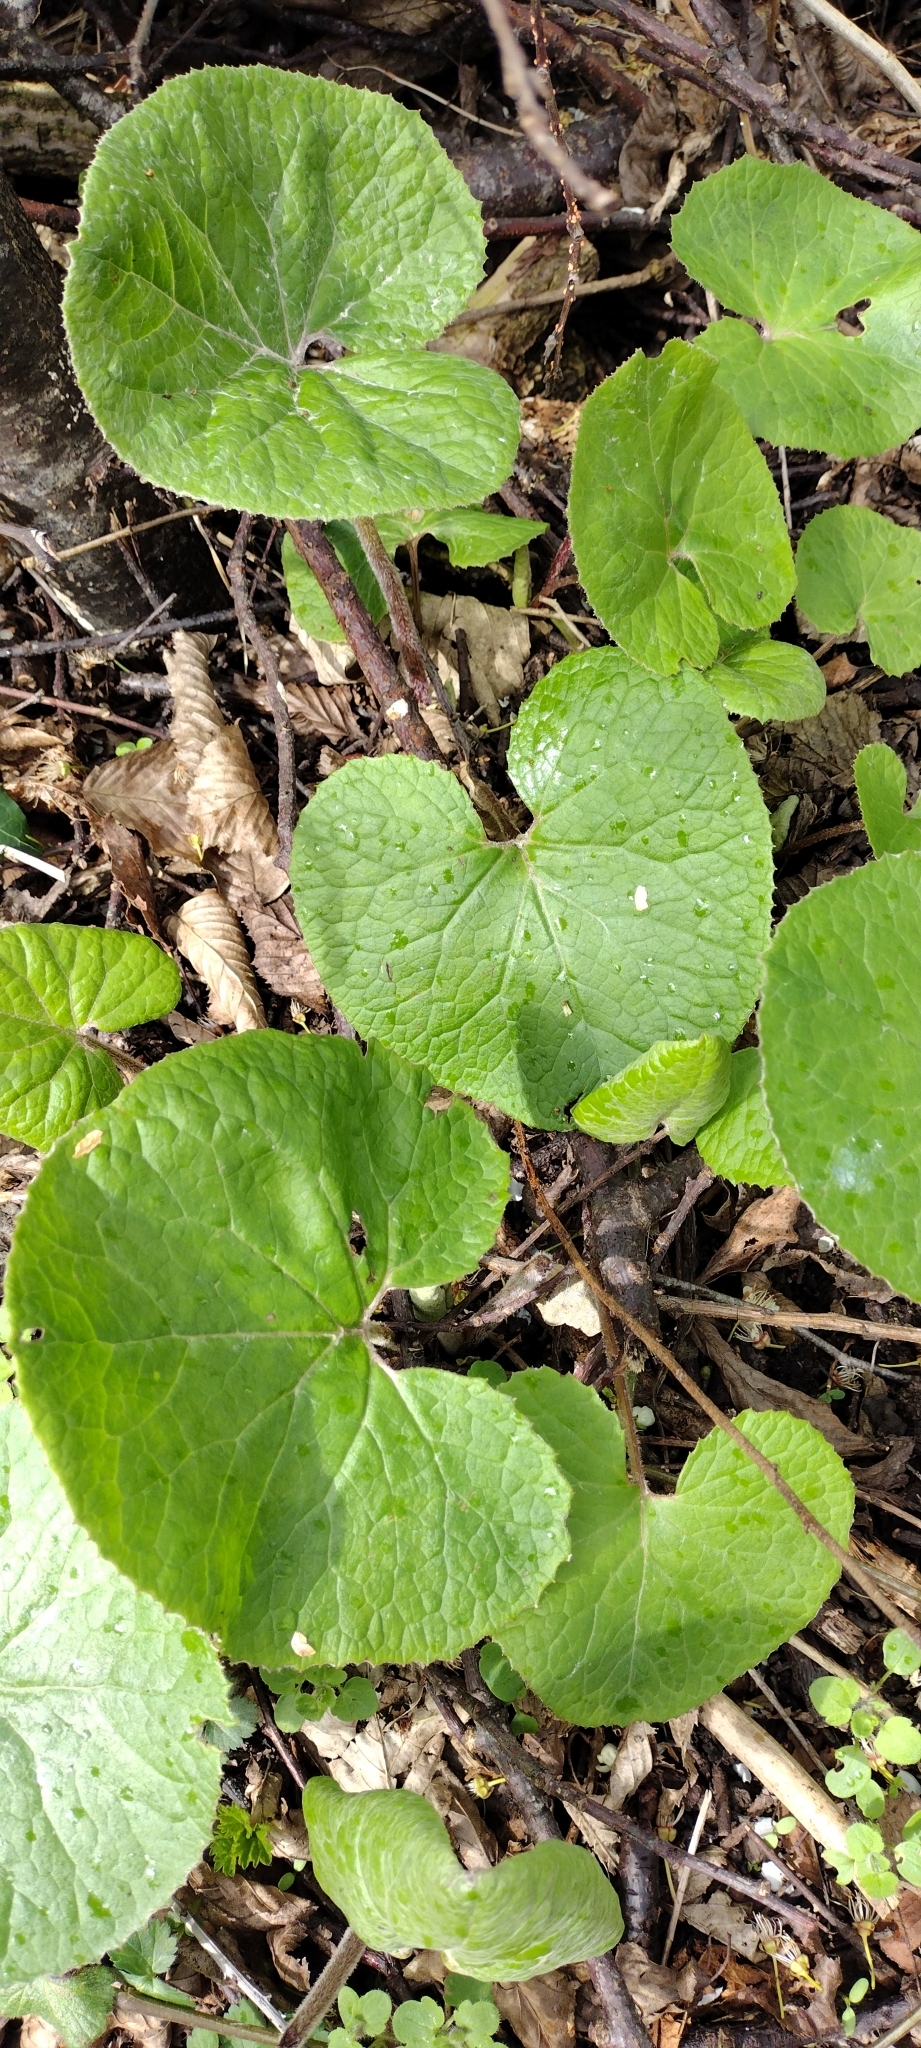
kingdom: Plantae
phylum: Tracheophyta
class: Magnoliopsida
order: Asterales
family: Asteraceae
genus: Petasites
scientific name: Petasites pyrenaicus
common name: Winter heliotrope
